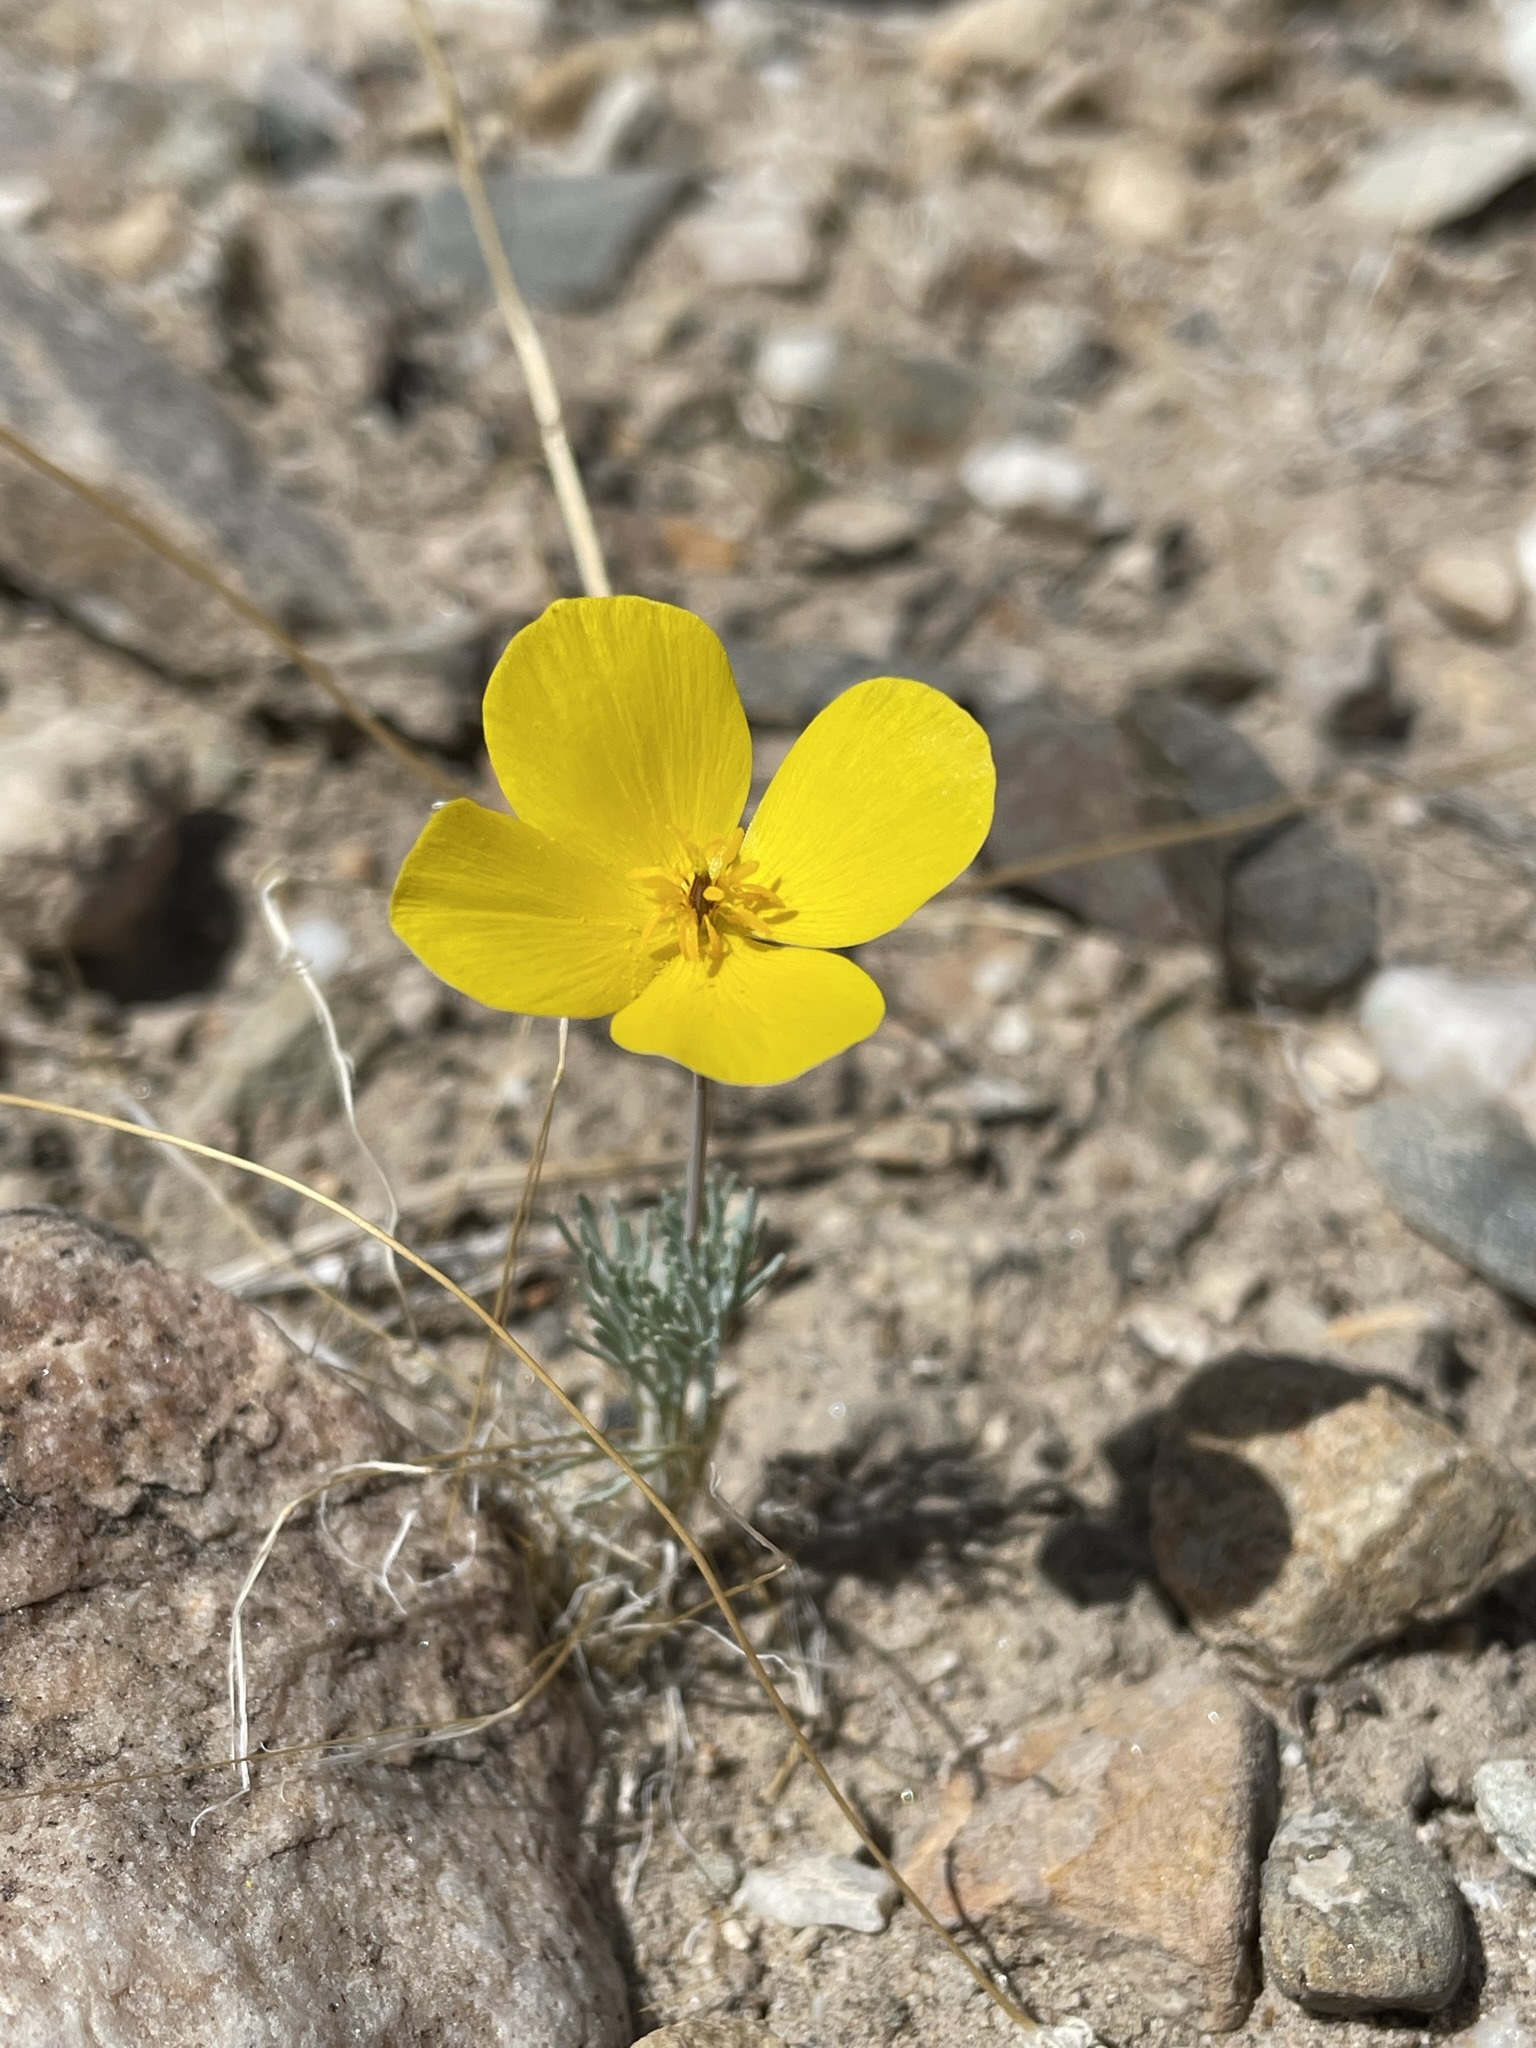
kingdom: Plantae
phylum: Tracheophyta
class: Magnoliopsida
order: Ranunculales
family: Papaveraceae
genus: Eschscholzia
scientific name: Eschscholzia glyptosperma
